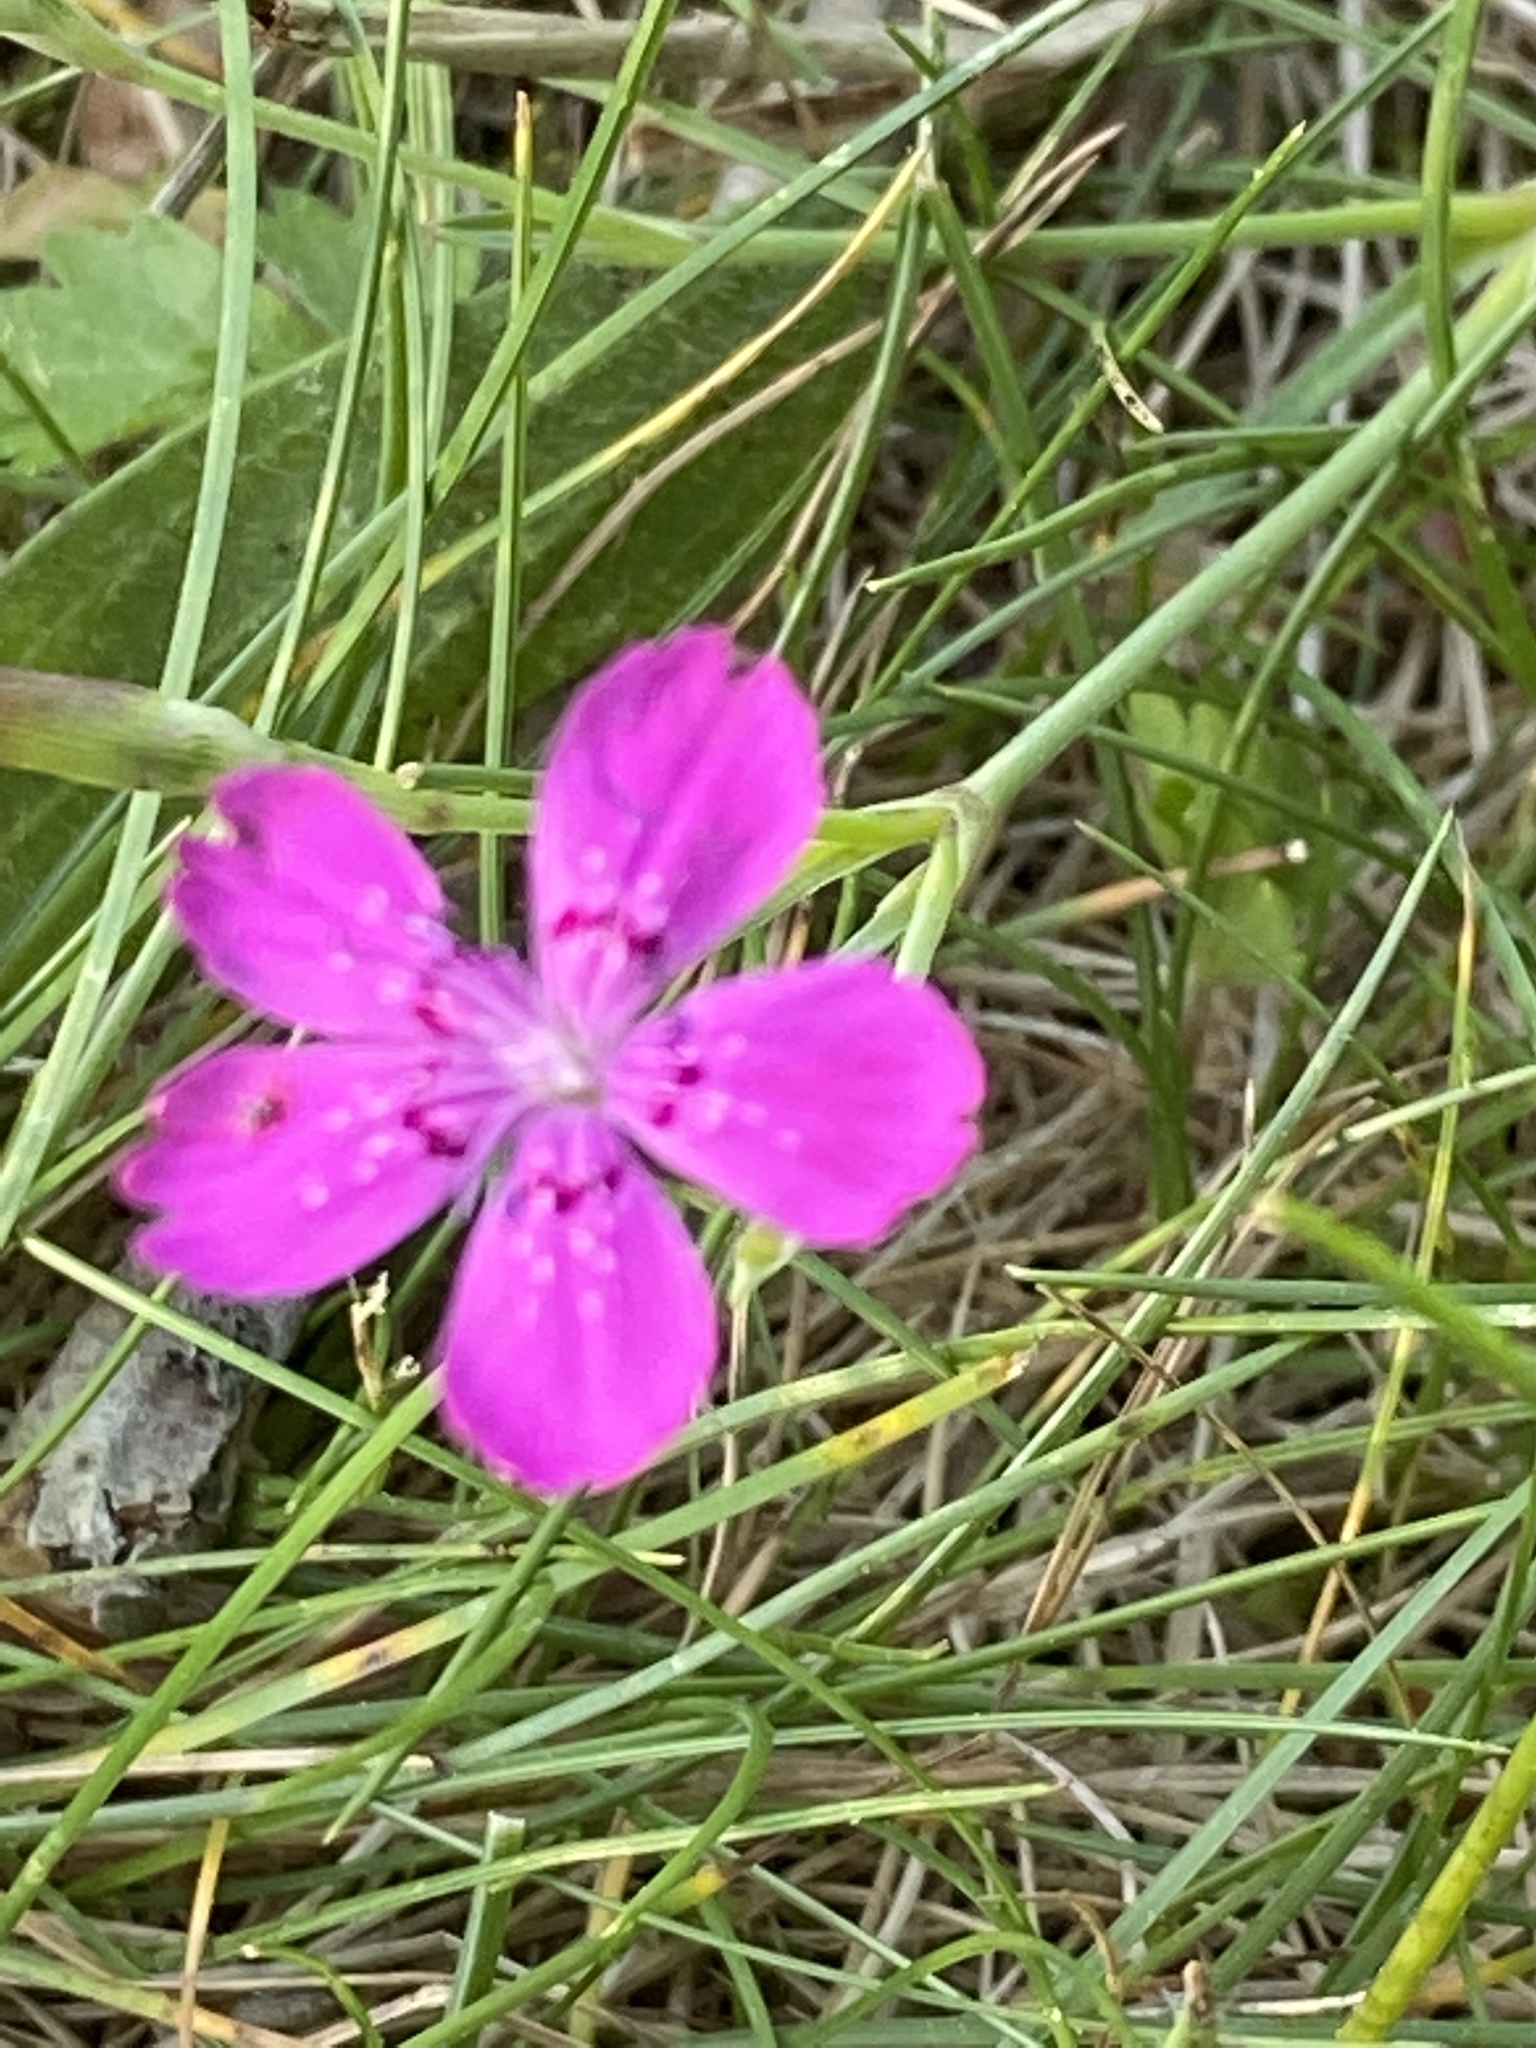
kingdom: Plantae
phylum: Tracheophyta
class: Magnoliopsida
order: Caryophyllales
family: Caryophyllaceae
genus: Dianthus
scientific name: Dianthus deltoides
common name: Maiden pink
